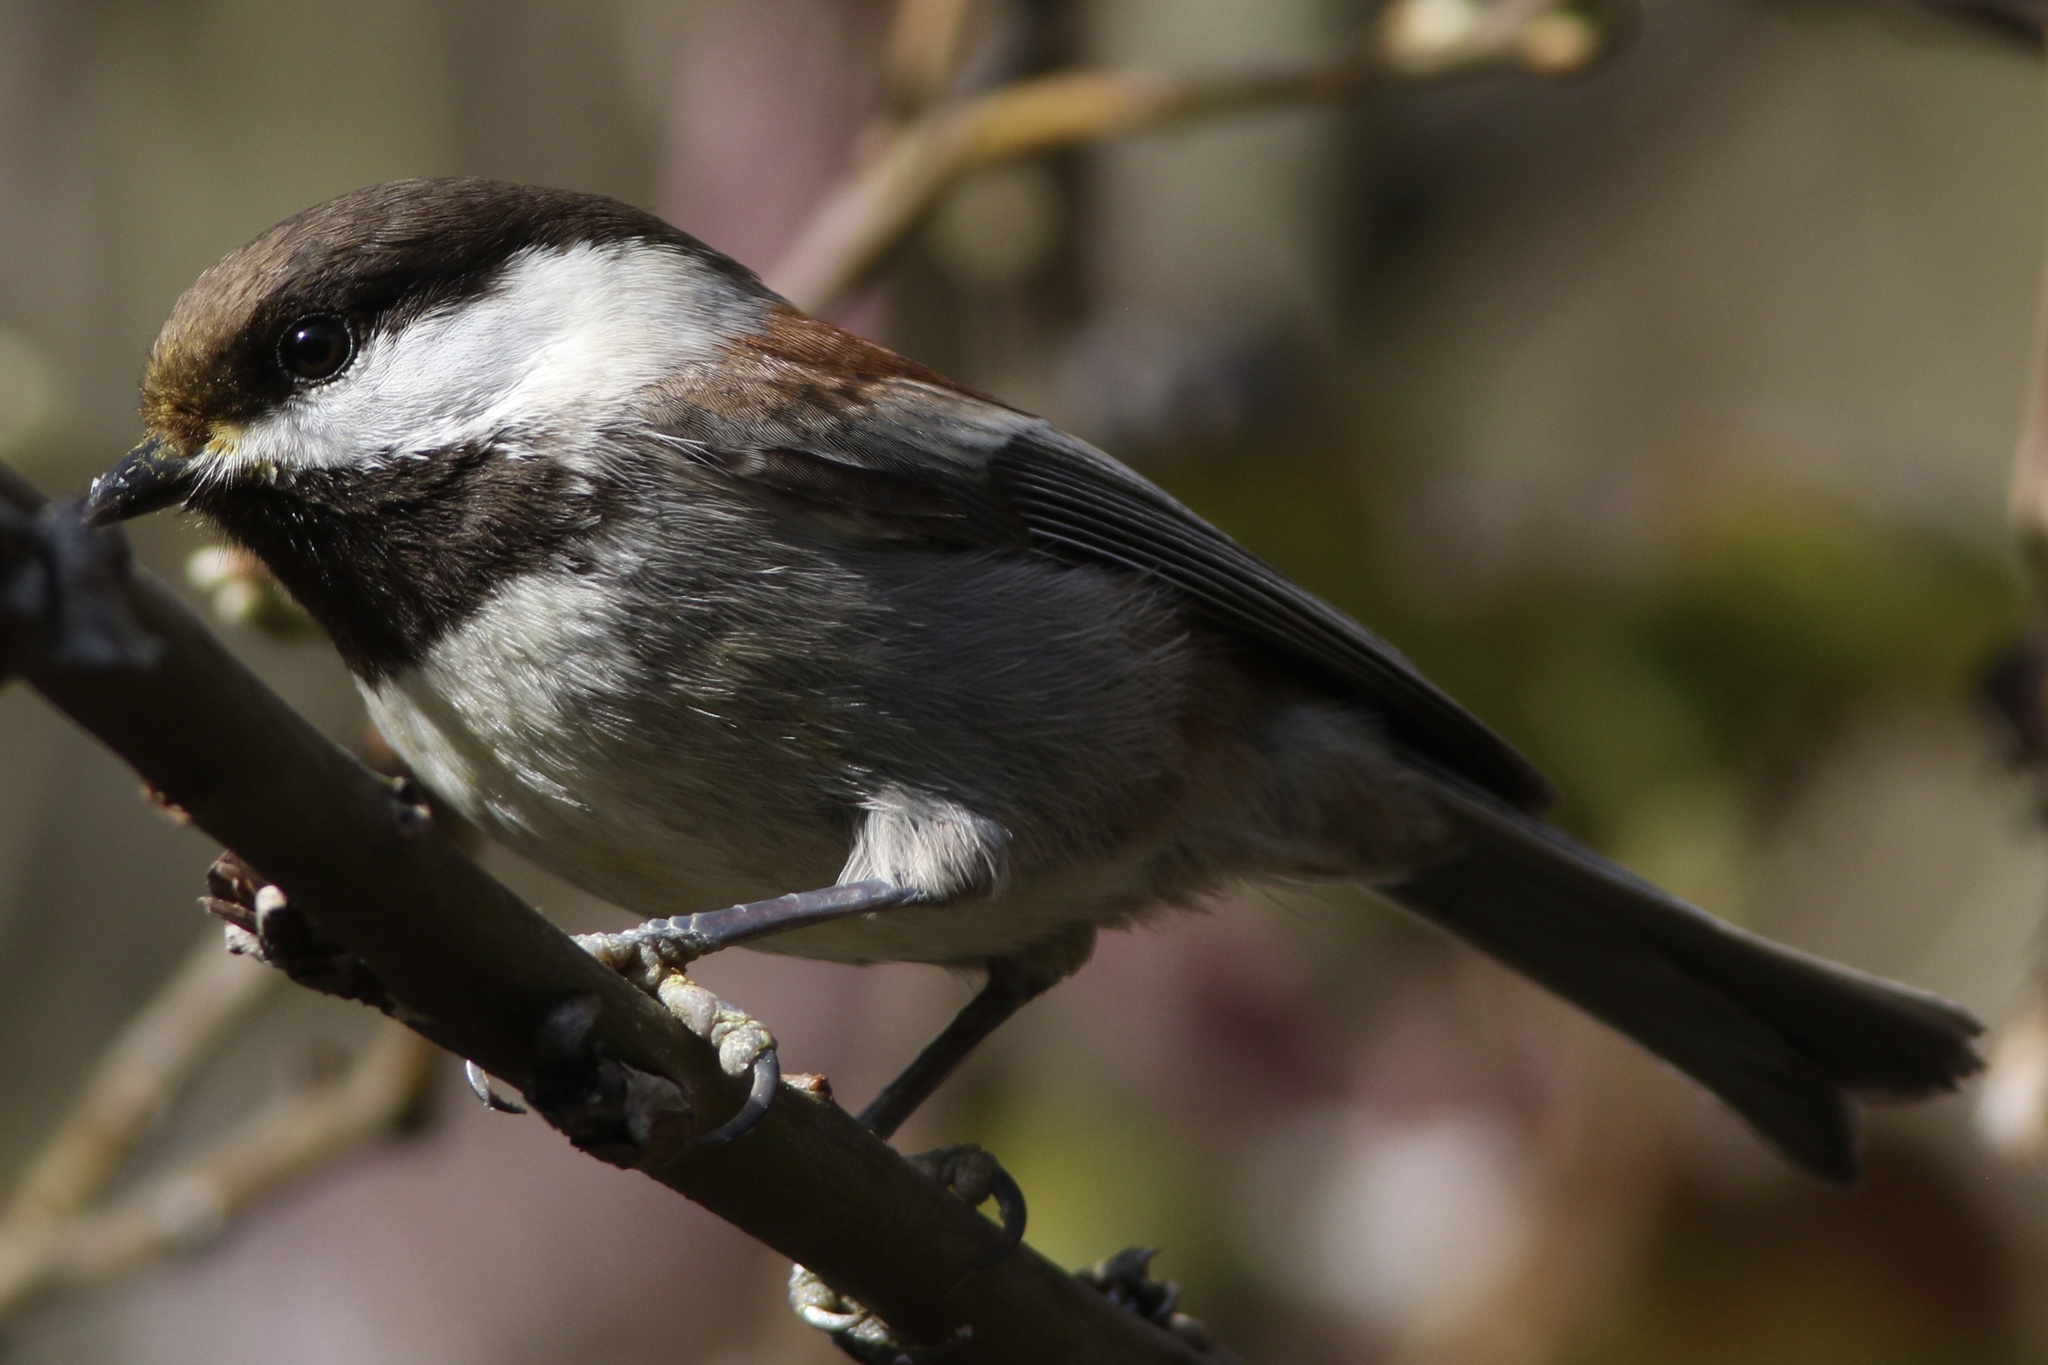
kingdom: Animalia
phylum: Chordata
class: Aves
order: Passeriformes
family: Paridae
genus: Poecile
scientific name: Poecile rufescens
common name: Chestnut-backed chickadee
